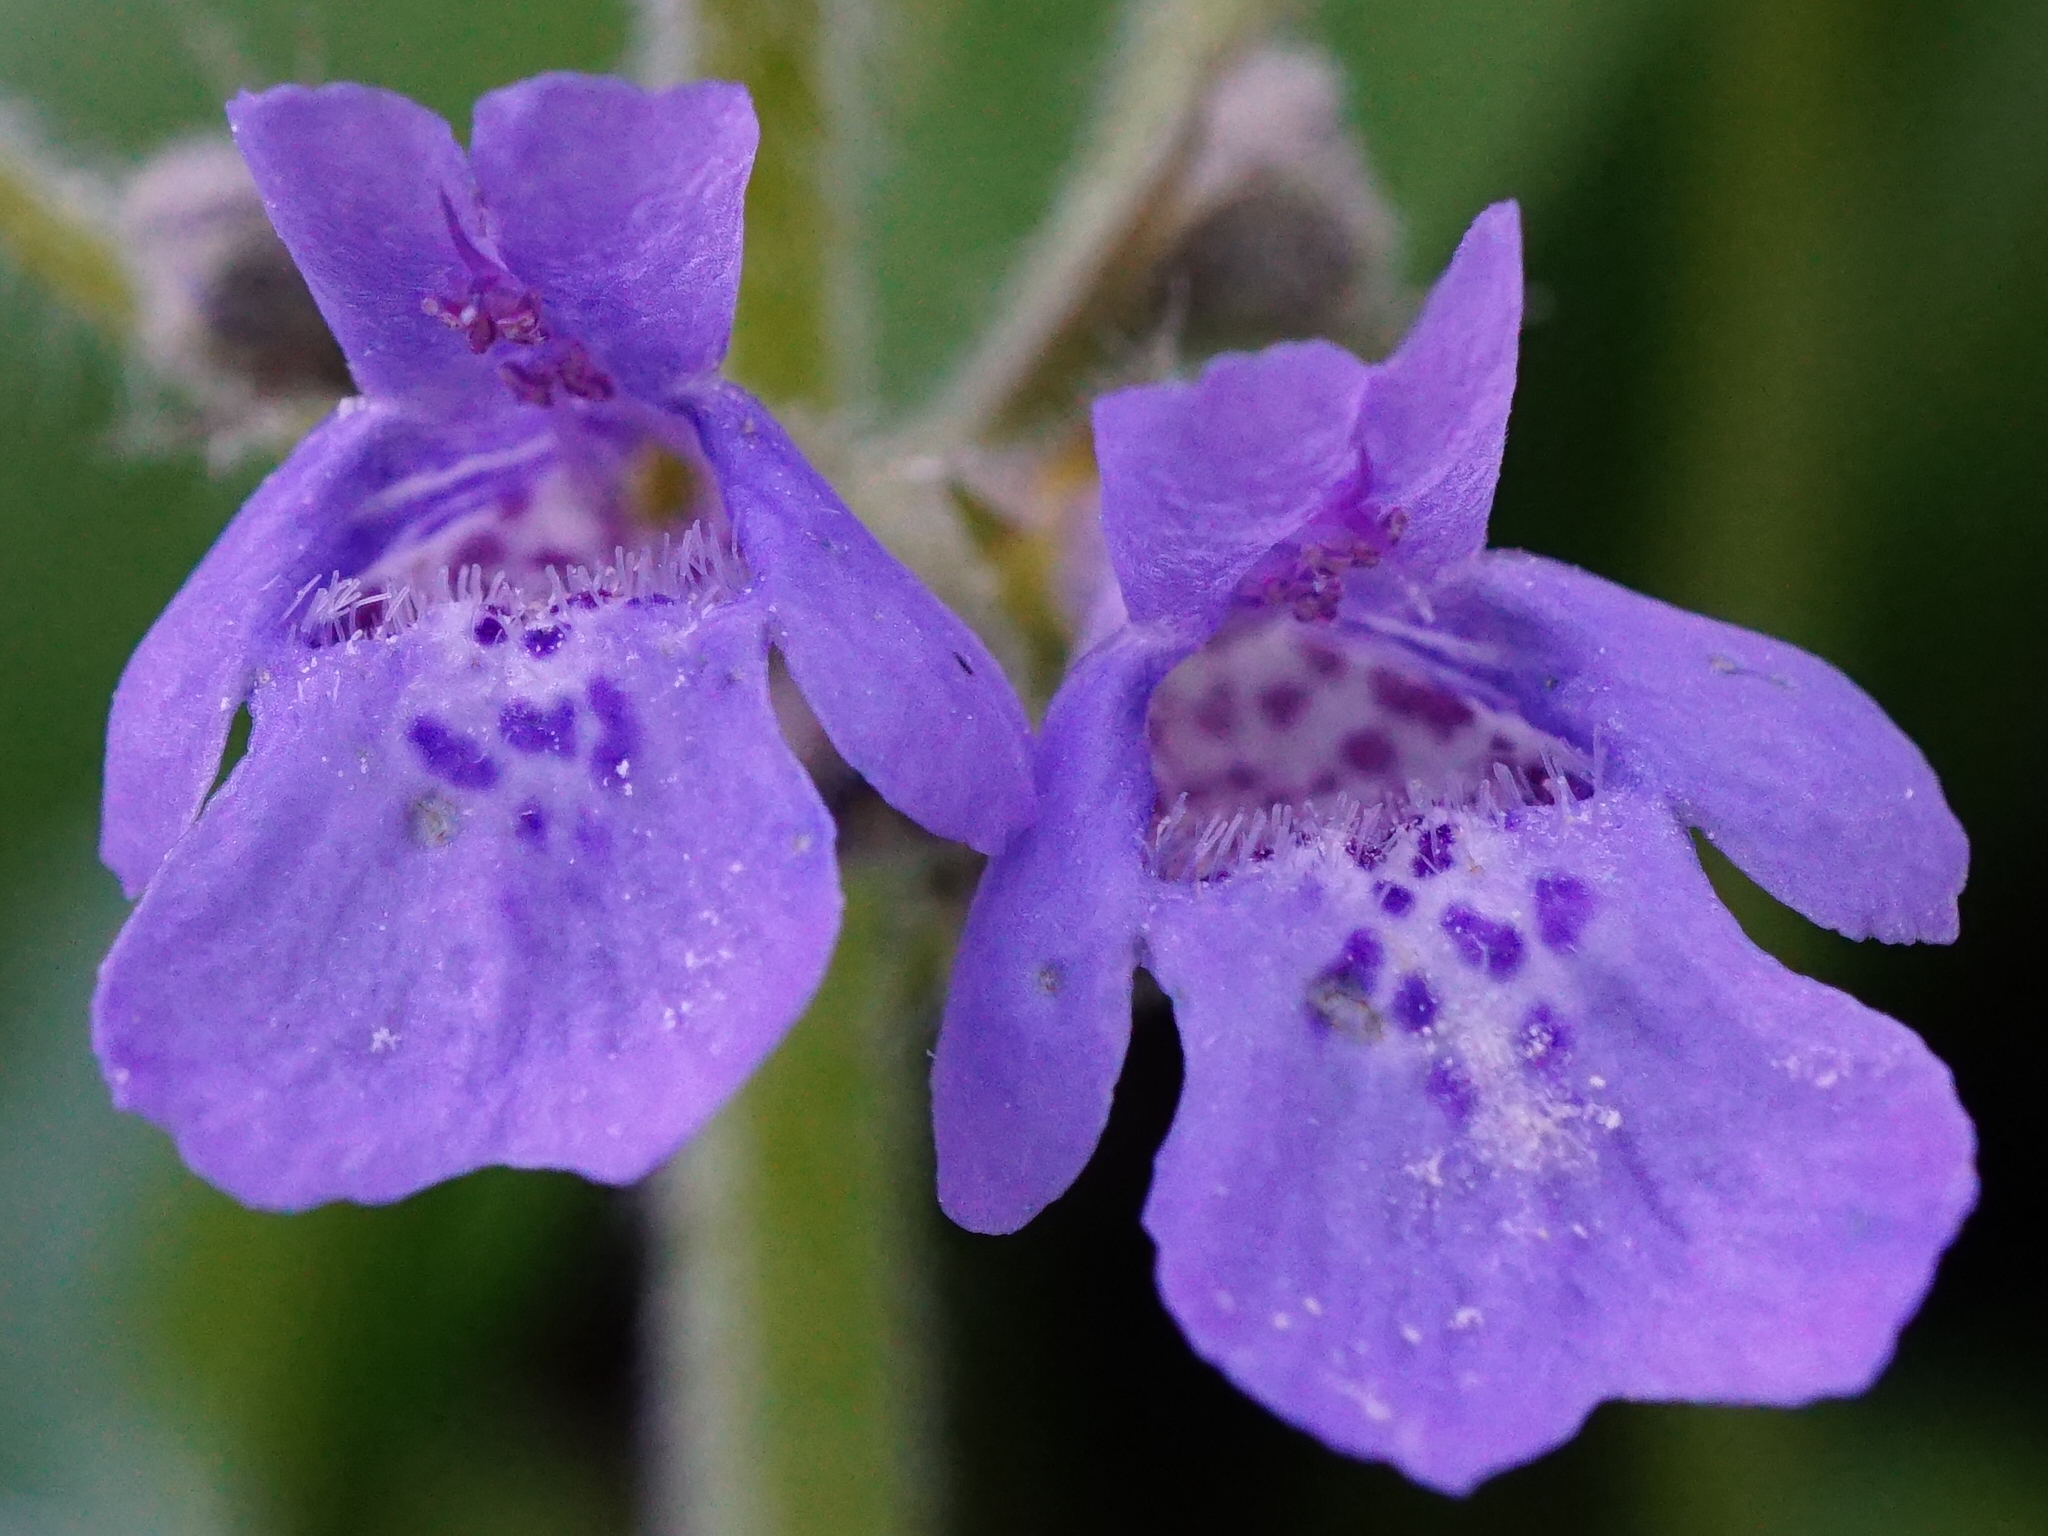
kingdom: Plantae
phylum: Tracheophyta
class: Magnoliopsida
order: Lamiales
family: Lamiaceae
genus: Glechoma
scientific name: Glechoma hirsuta
